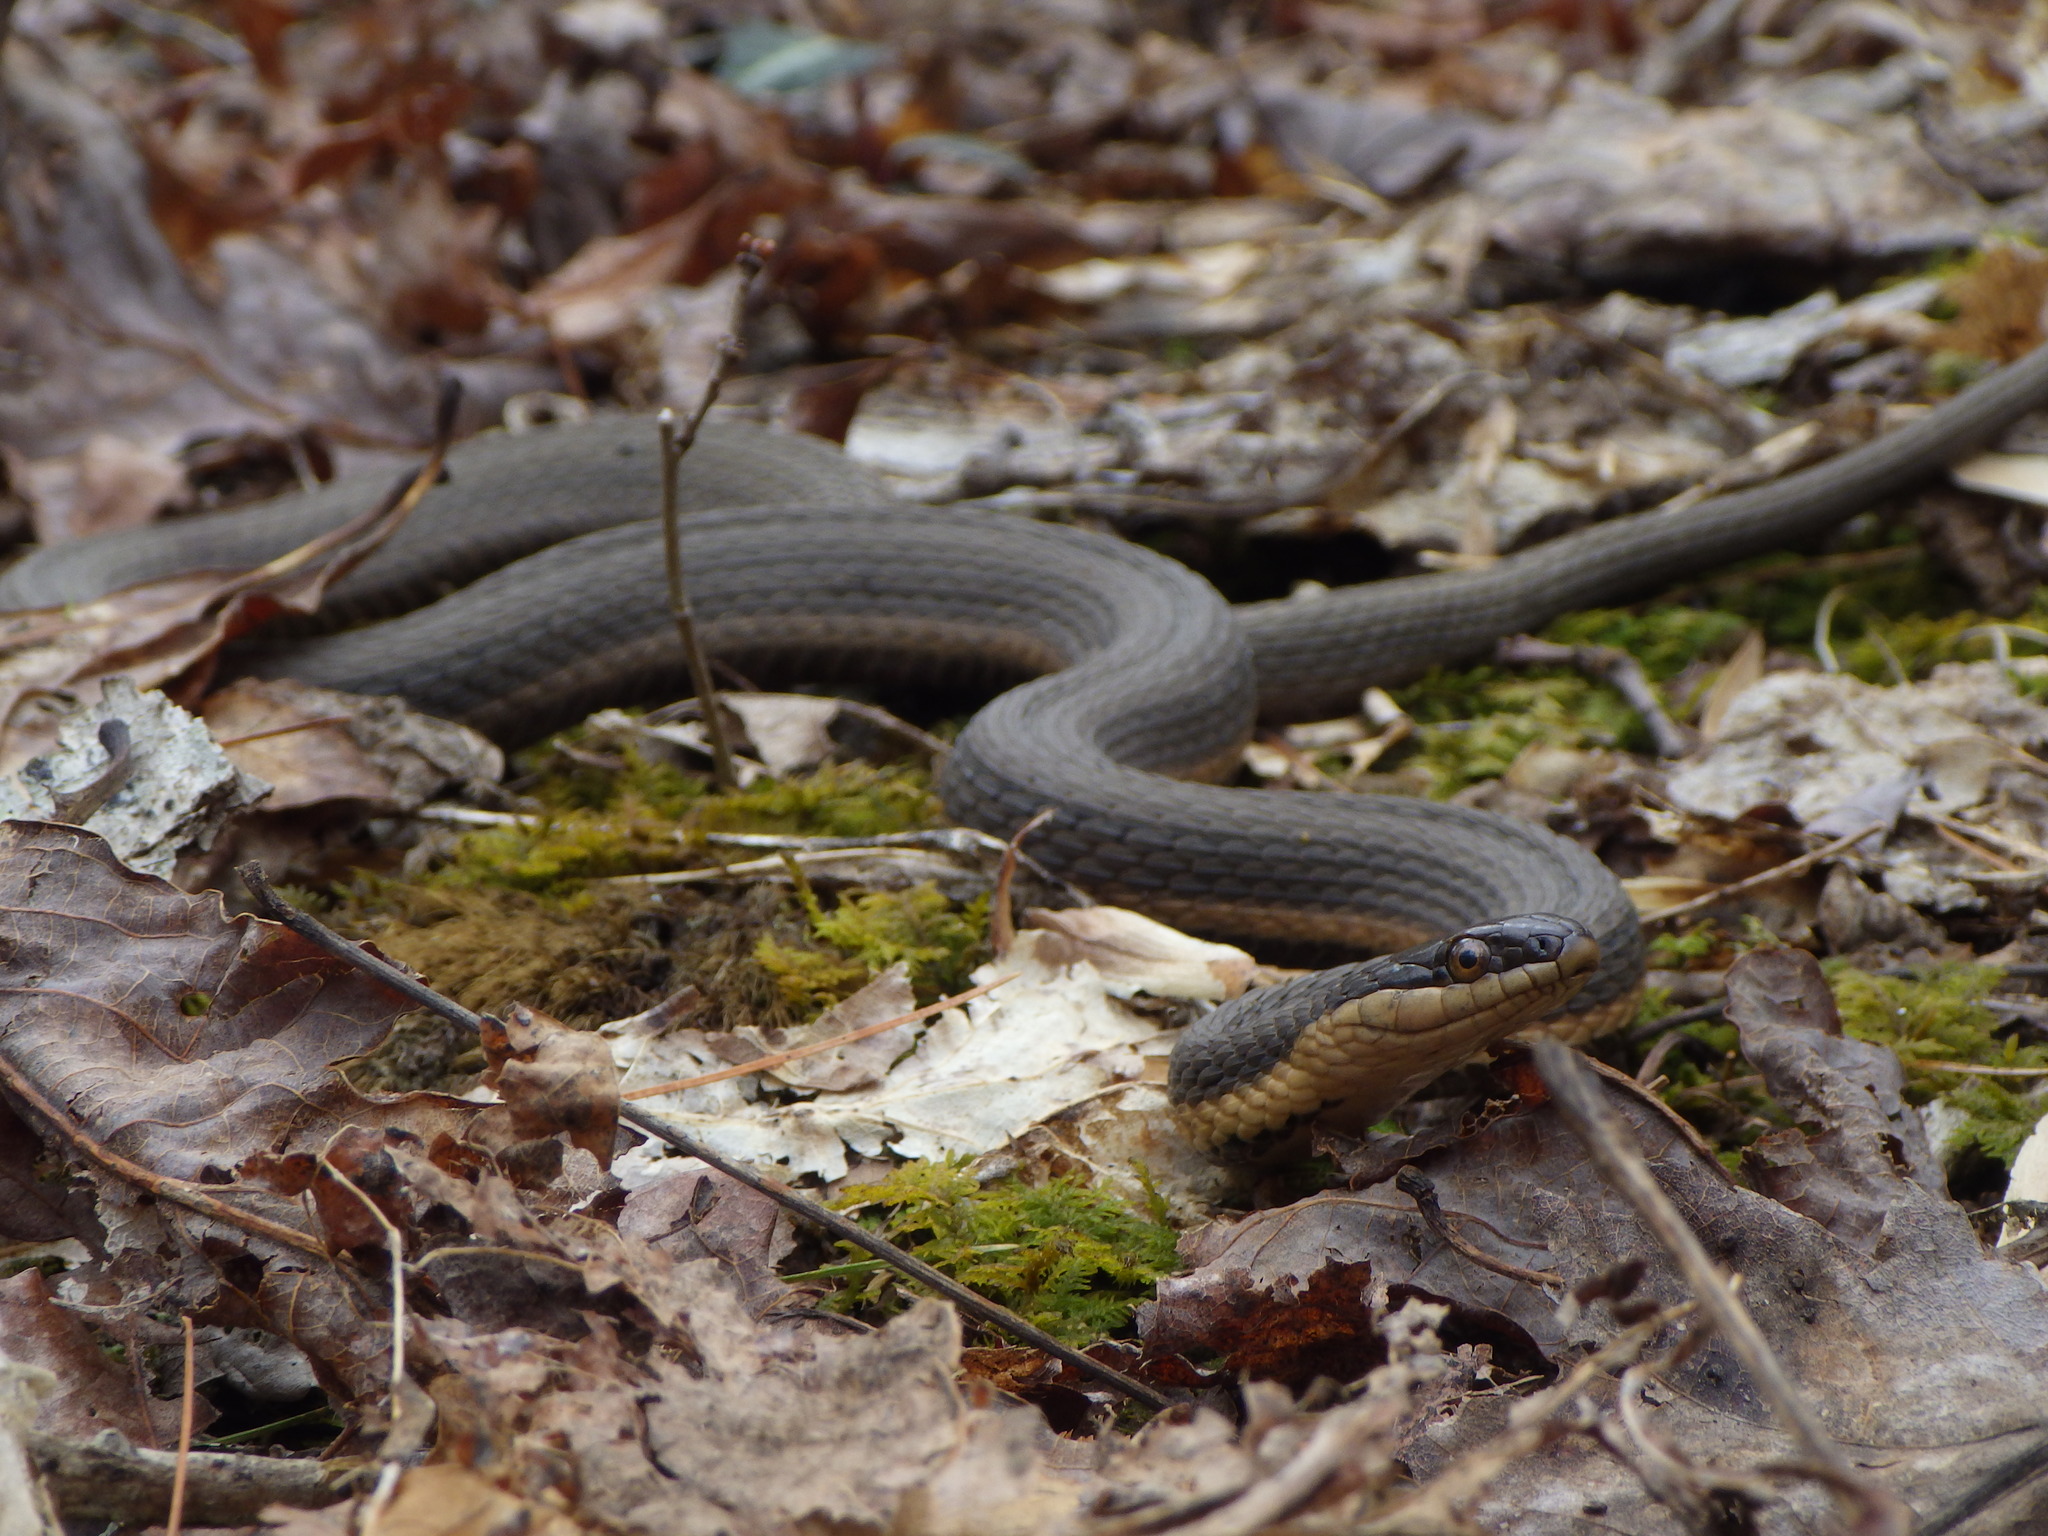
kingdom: Animalia
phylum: Chordata
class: Squamata
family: Colubridae
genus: Regina
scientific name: Regina septemvittata
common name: Queen snake
